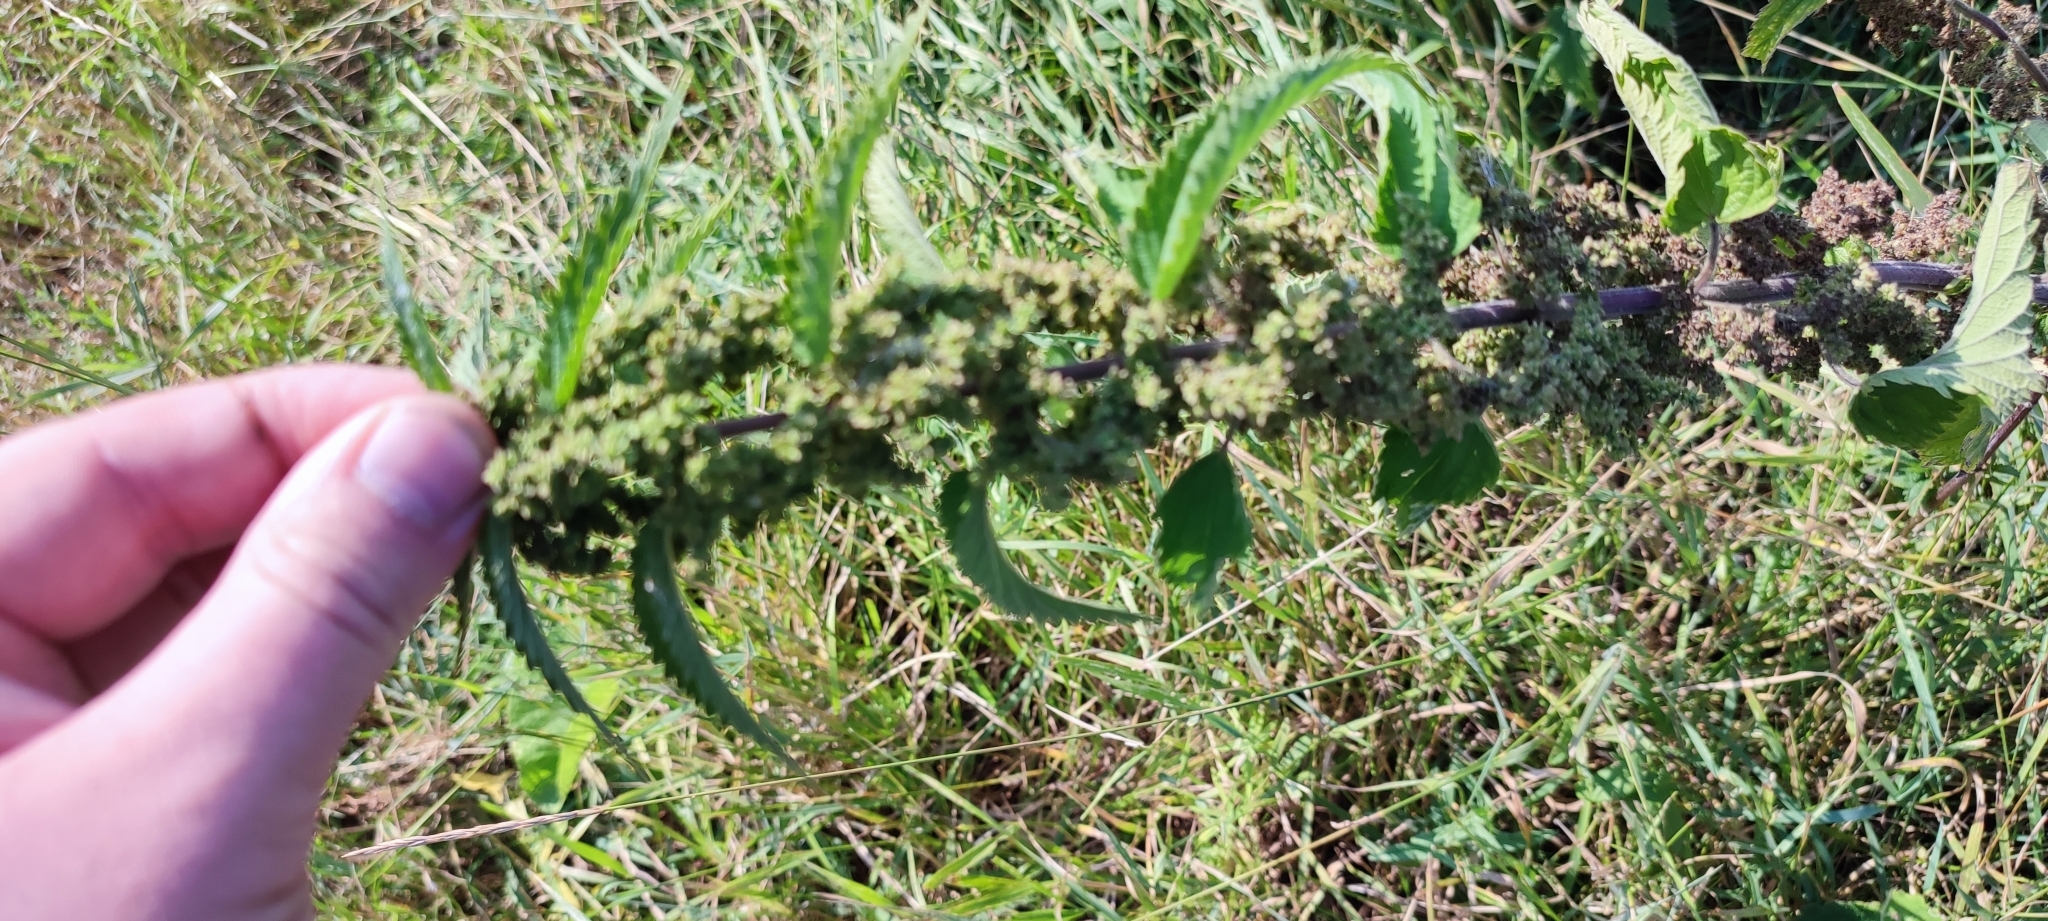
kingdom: Plantae
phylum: Tracheophyta
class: Magnoliopsida
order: Rosales
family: Urticaceae
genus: Urtica
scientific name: Urtica galeopsifolia
